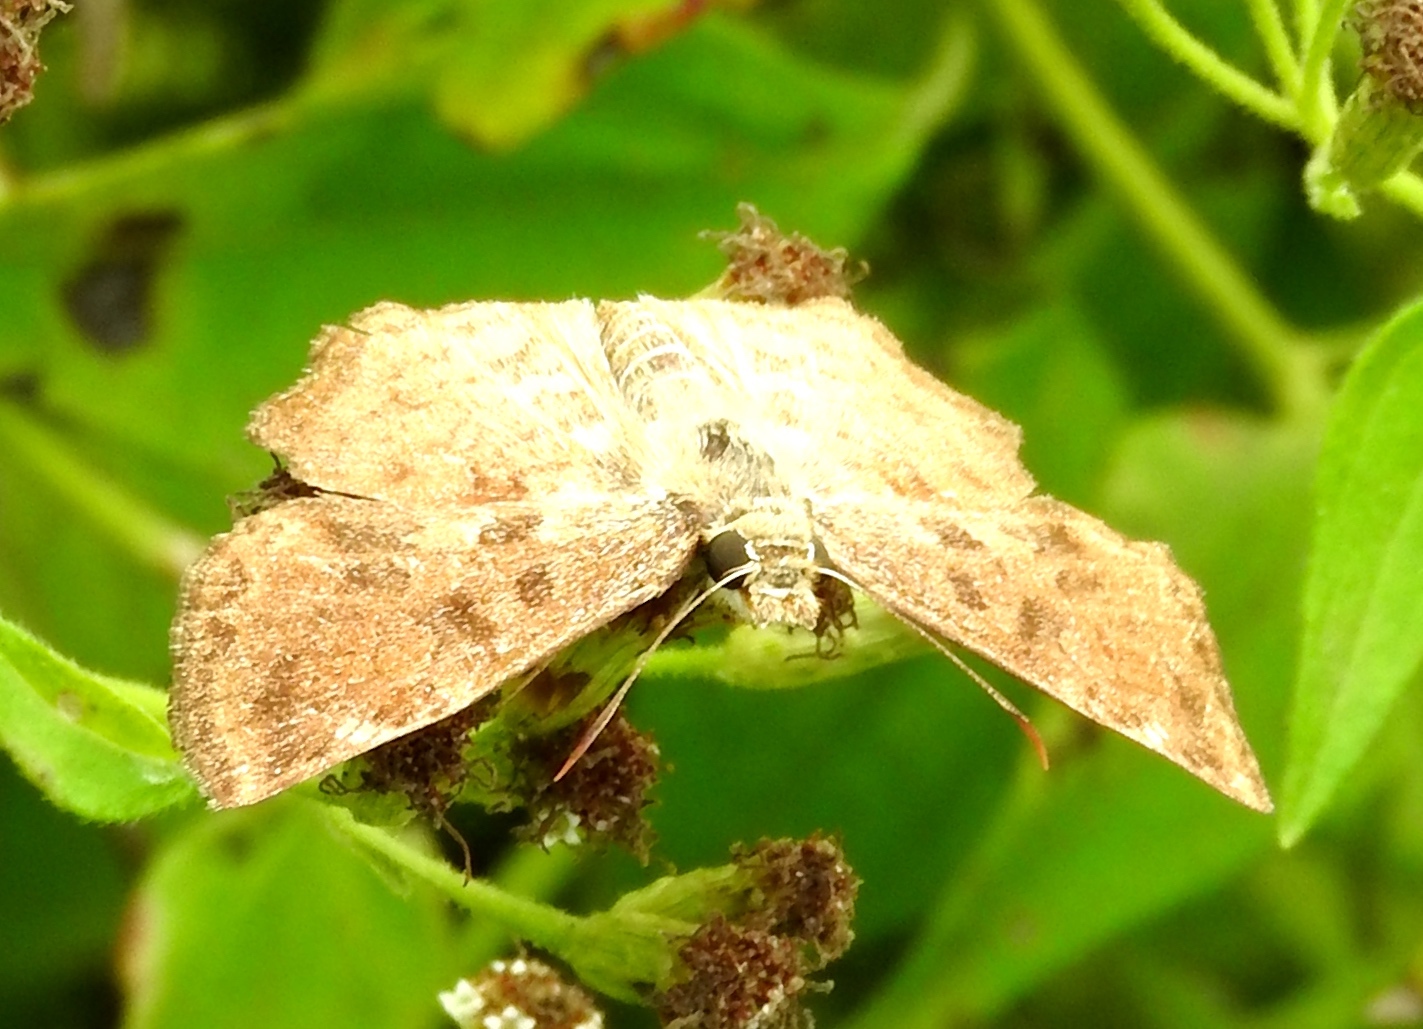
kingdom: Animalia
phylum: Arthropoda
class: Insecta
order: Lepidoptera
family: Hesperiidae
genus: Antigonus
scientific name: Antigonus erosus
